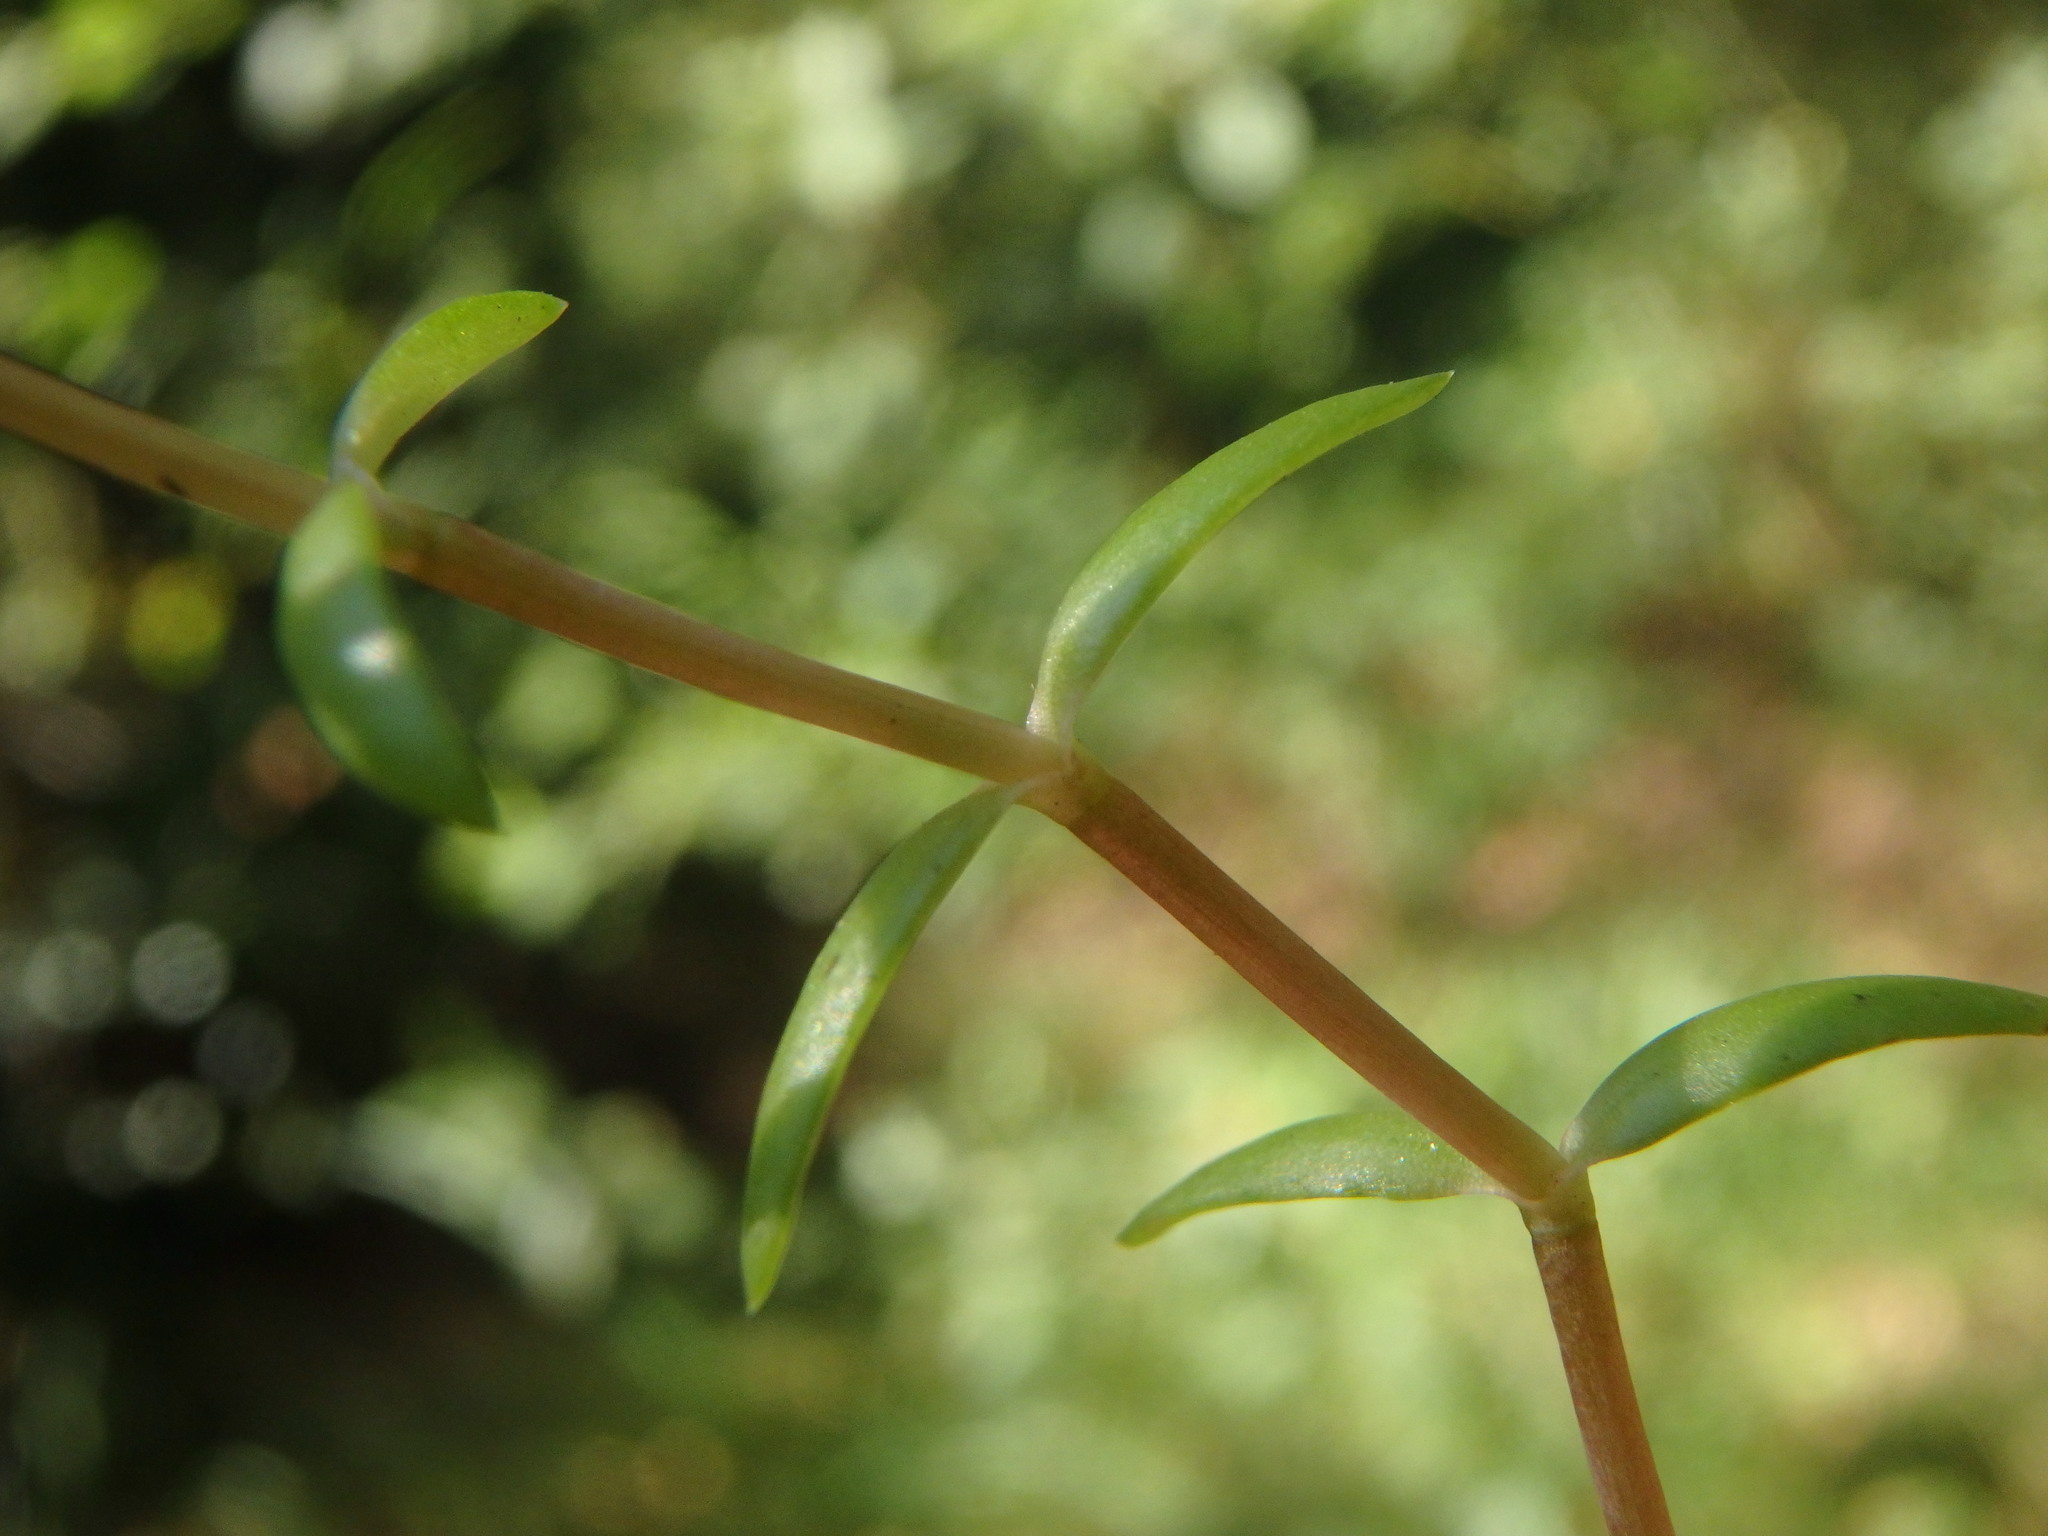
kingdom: Plantae
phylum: Tracheophyta
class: Magnoliopsida
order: Saxifragales
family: Crassulaceae
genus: Crassula
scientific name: Crassula helmsii
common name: New zealand pigmyweed
